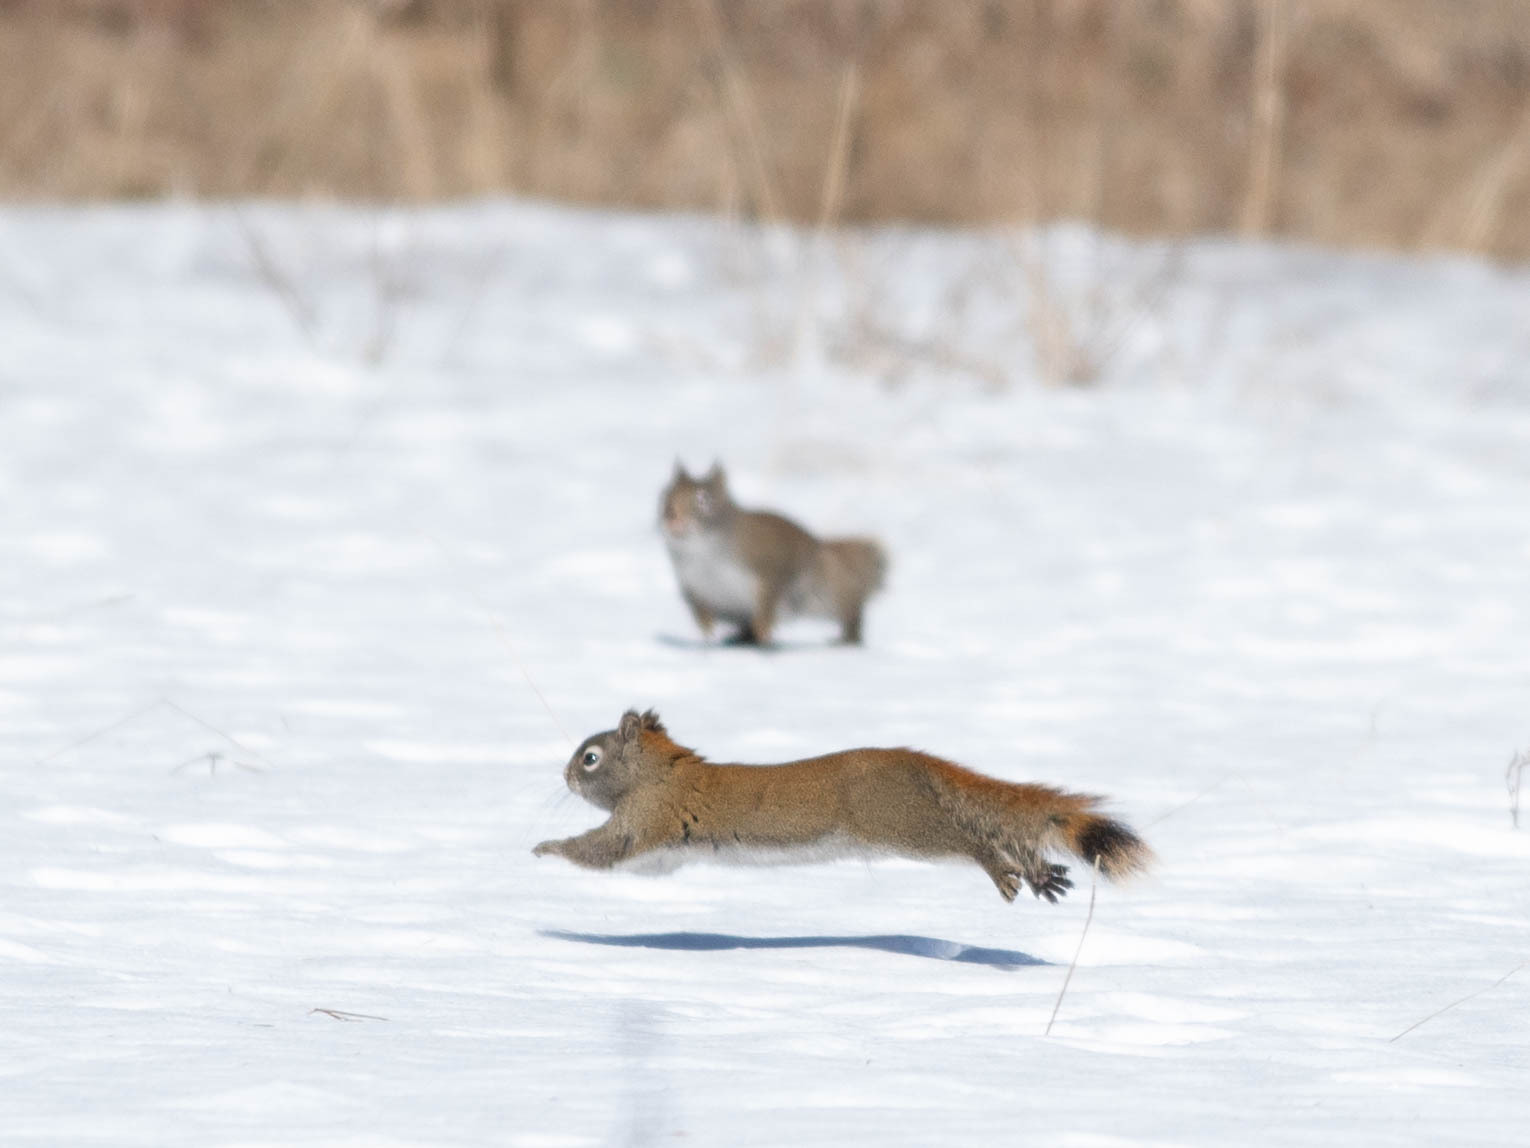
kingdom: Animalia
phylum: Chordata
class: Mammalia
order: Rodentia
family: Sciuridae
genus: Tamiasciurus
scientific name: Tamiasciurus hudsonicus
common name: Red squirrel
